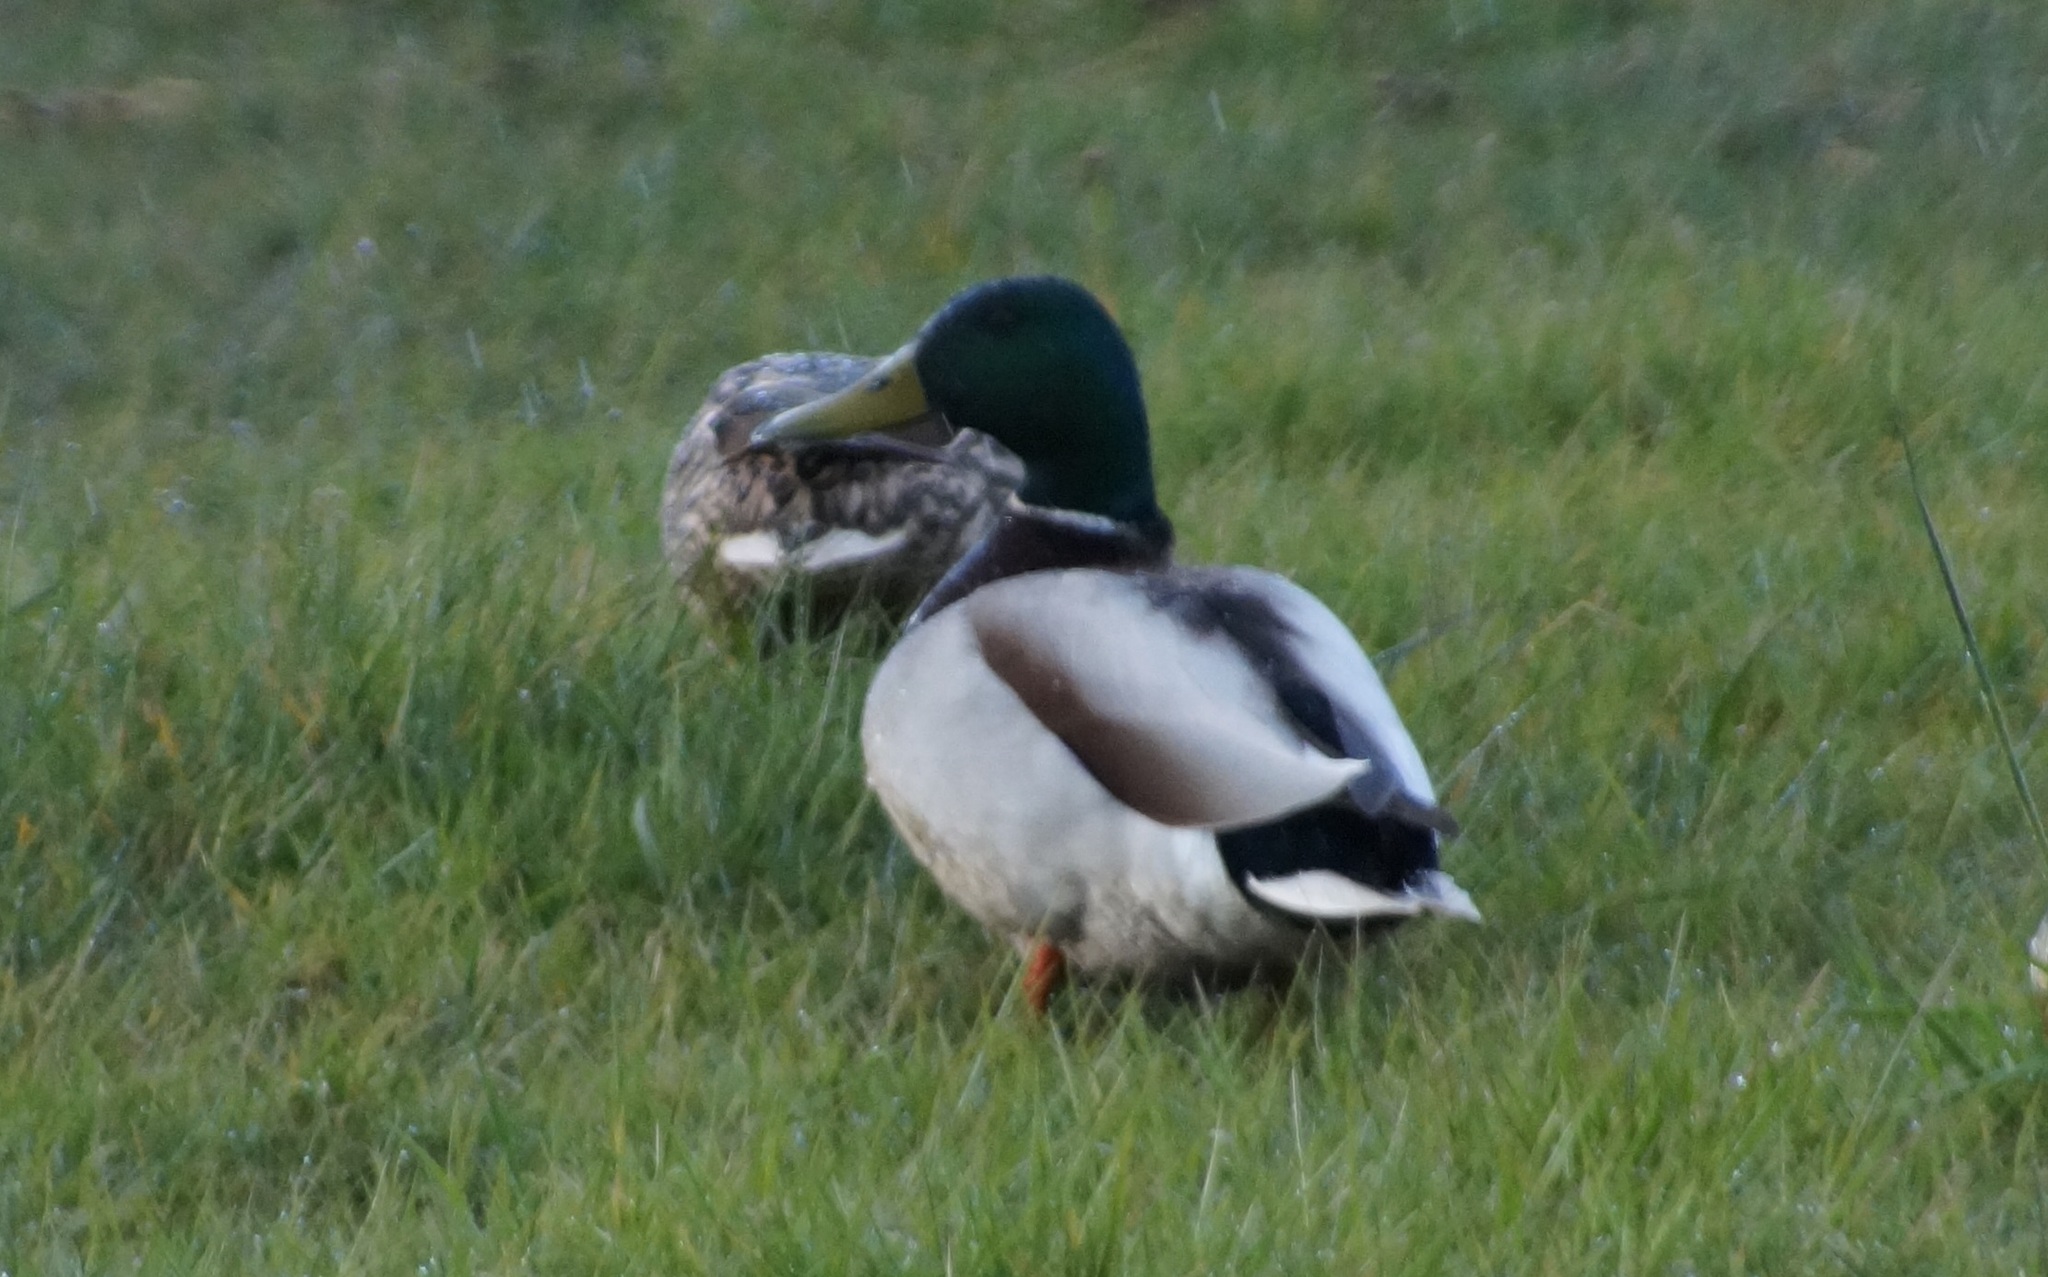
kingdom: Animalia
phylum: Chordata
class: Aves
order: Anseriformes
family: Anatidae
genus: Anas
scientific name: Anas platyrhynchos
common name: Mallard
